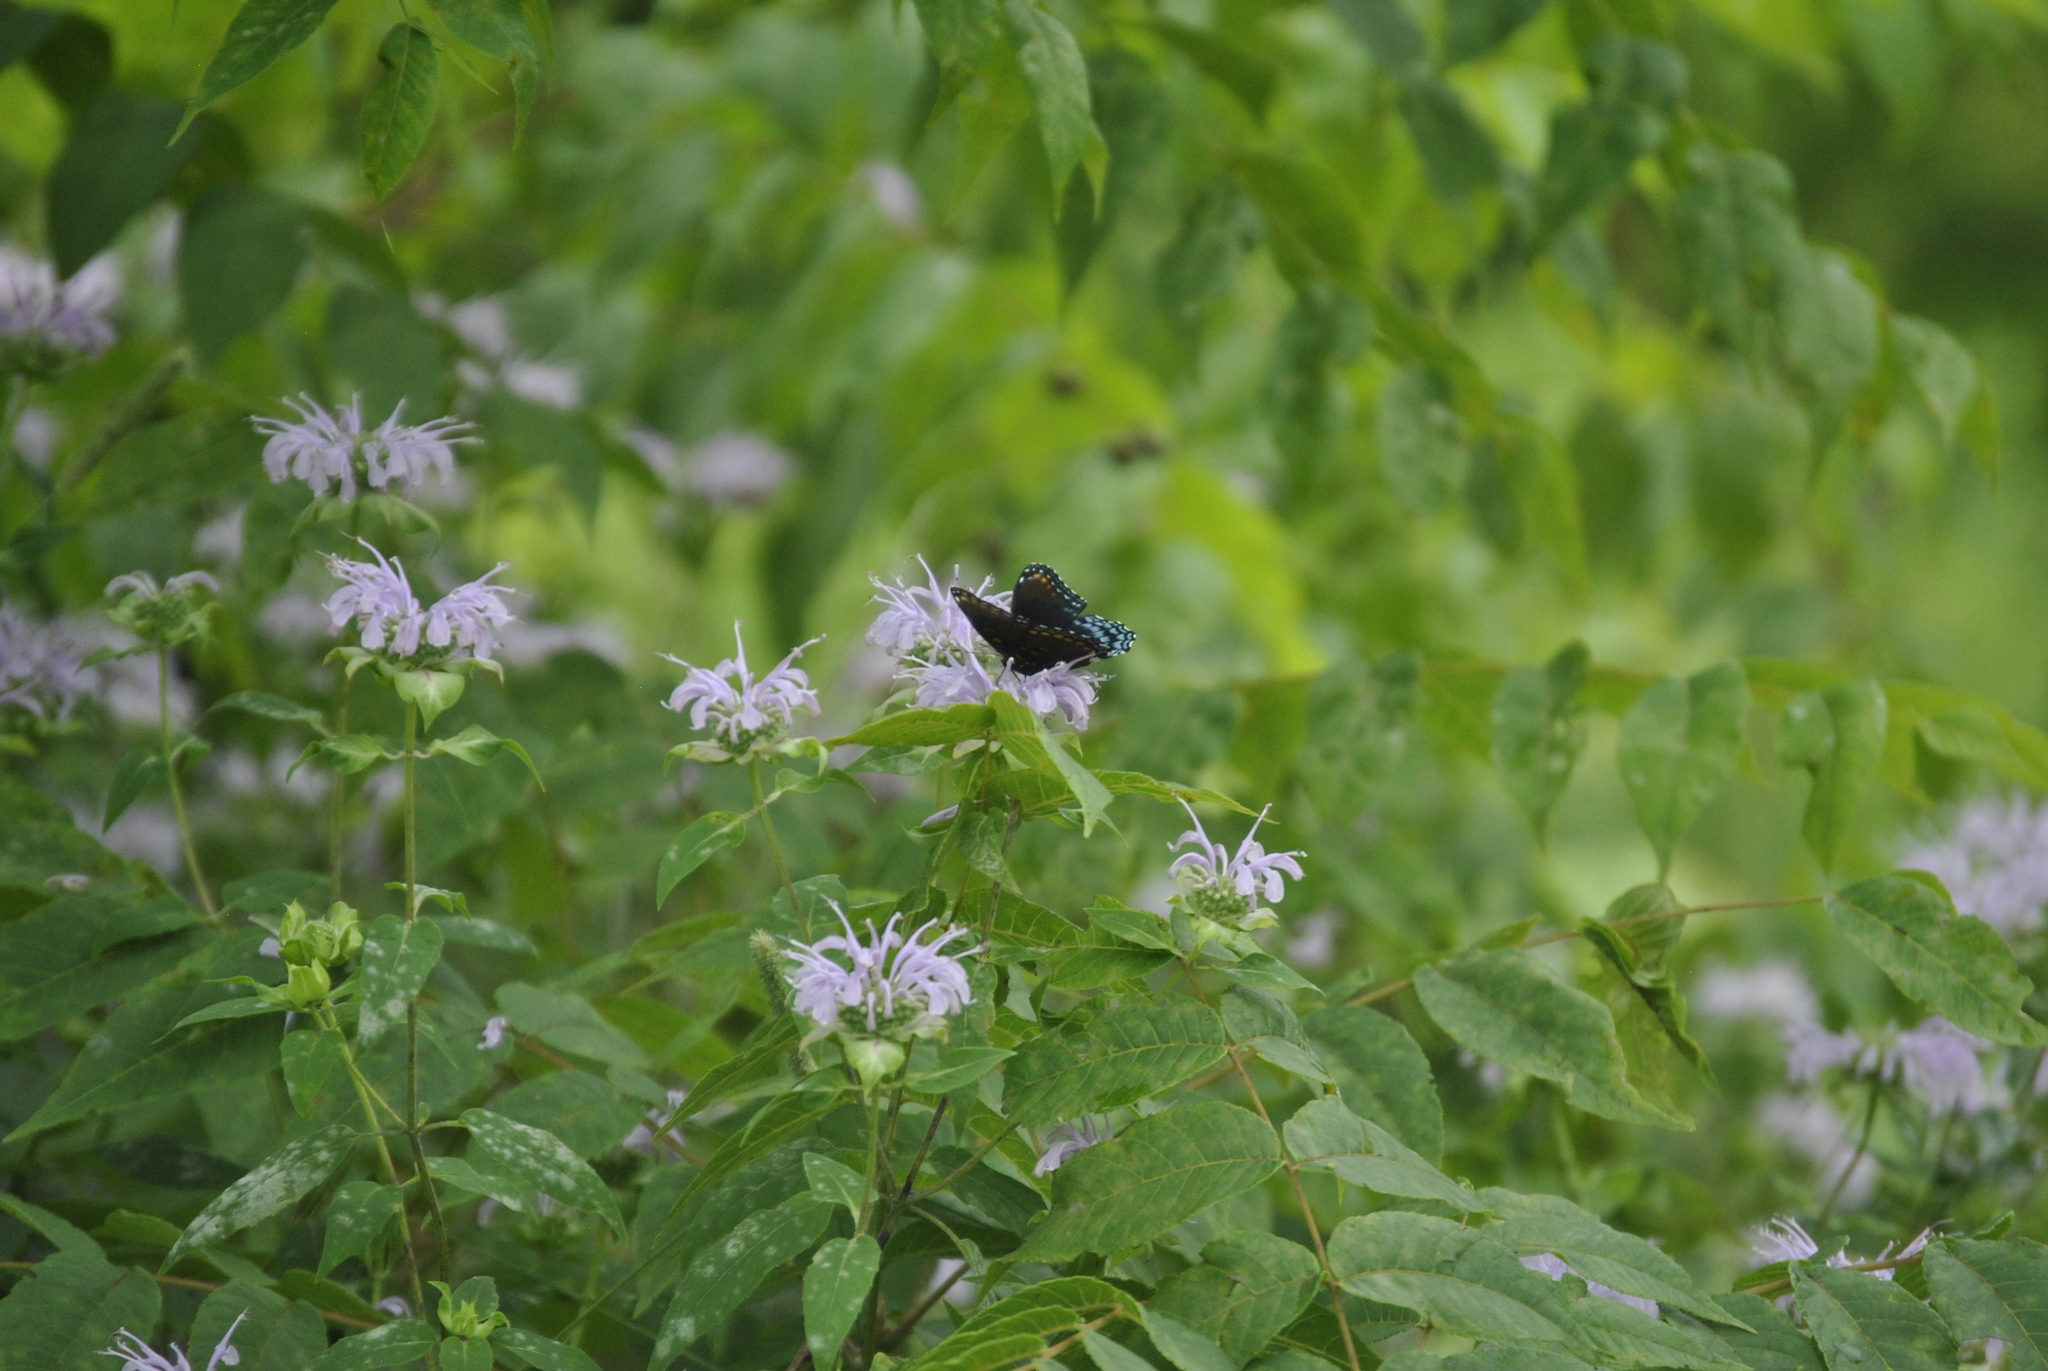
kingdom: Plantae
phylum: Tracheophyta
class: Magnoliopsida
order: Lamiales
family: Lamiaceae
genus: Monarda
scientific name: Monarda fistulosa
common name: Purple beebalm
